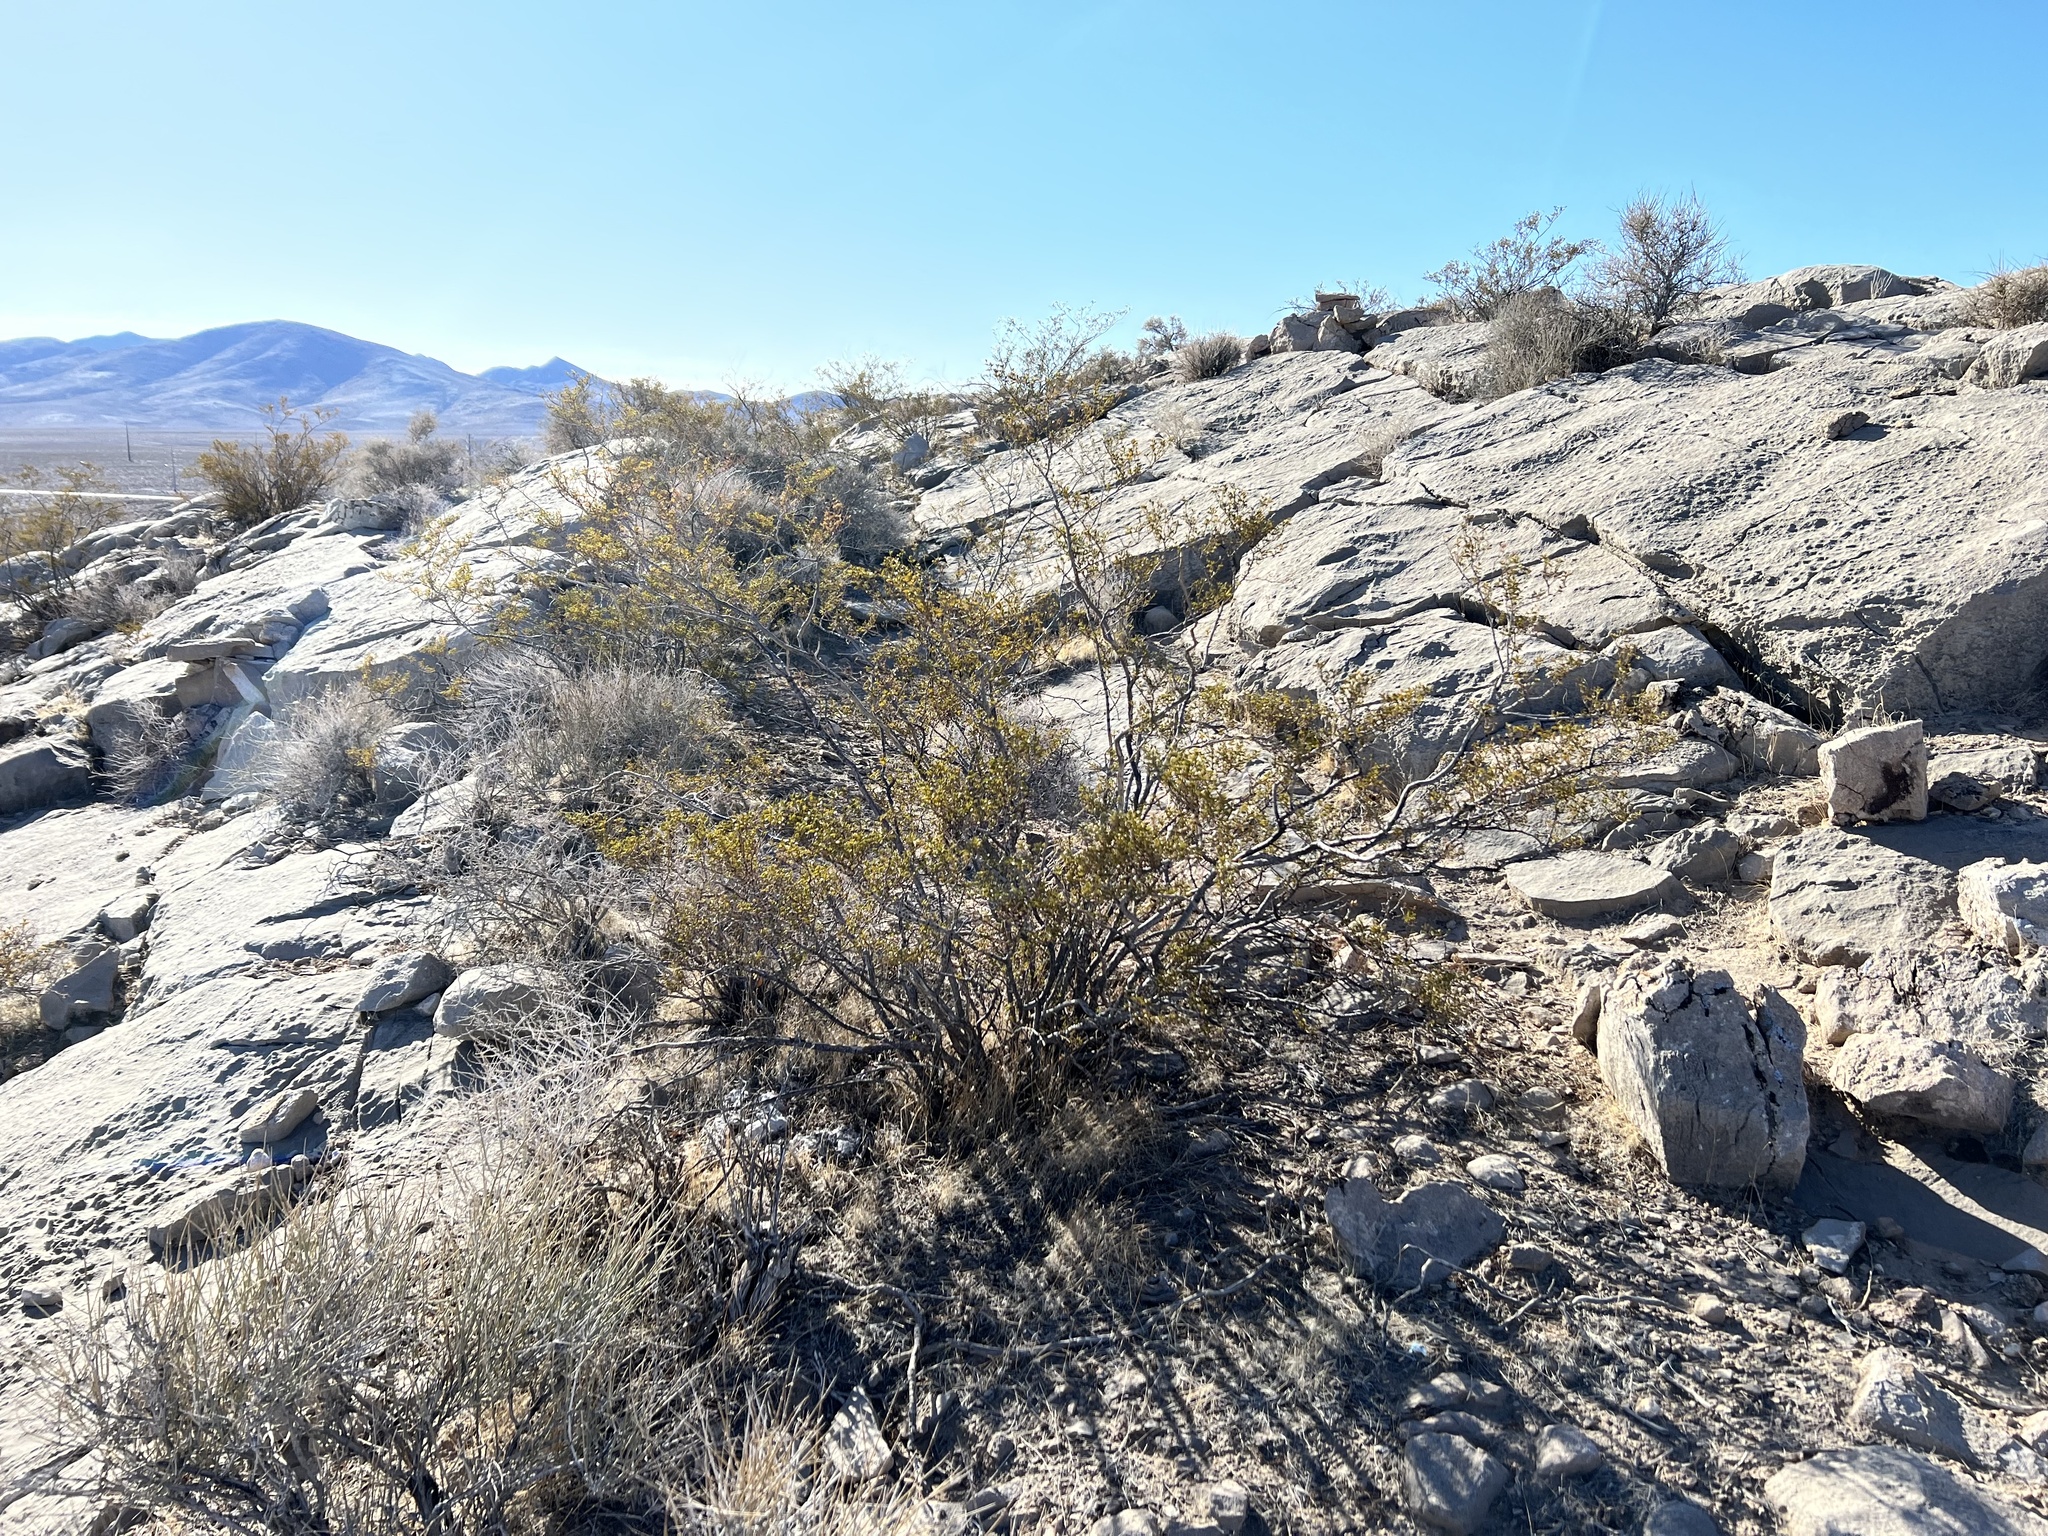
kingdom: Plantae
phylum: Tracheophyta
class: Magnoliopsida
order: Zygophyllales
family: Zygophyllaceae
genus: Larrea
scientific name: Larrea tridentata
